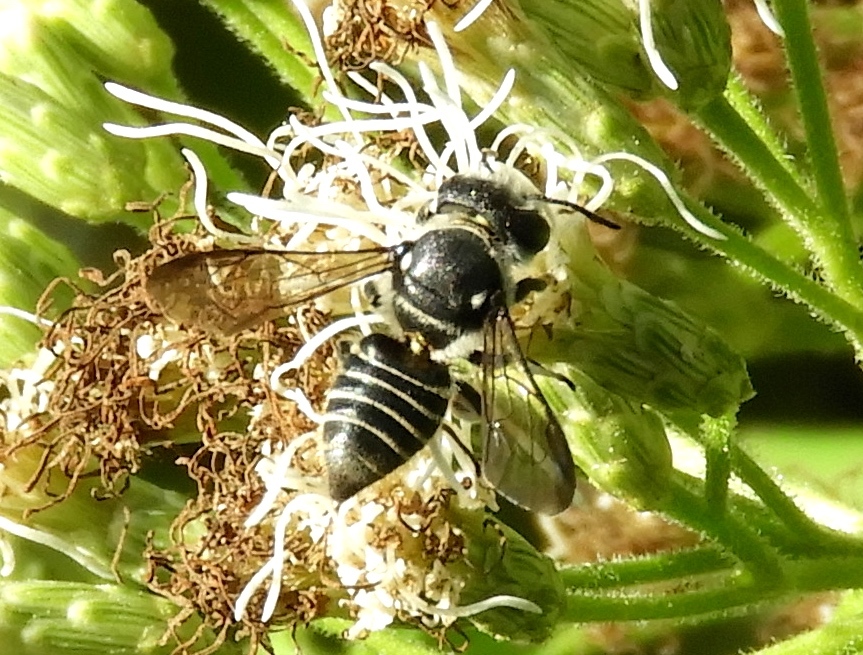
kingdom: Animalia
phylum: Arthropoda
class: Insecta
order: Hymenoptera
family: Megachilidae
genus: Megachile
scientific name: Megachile
